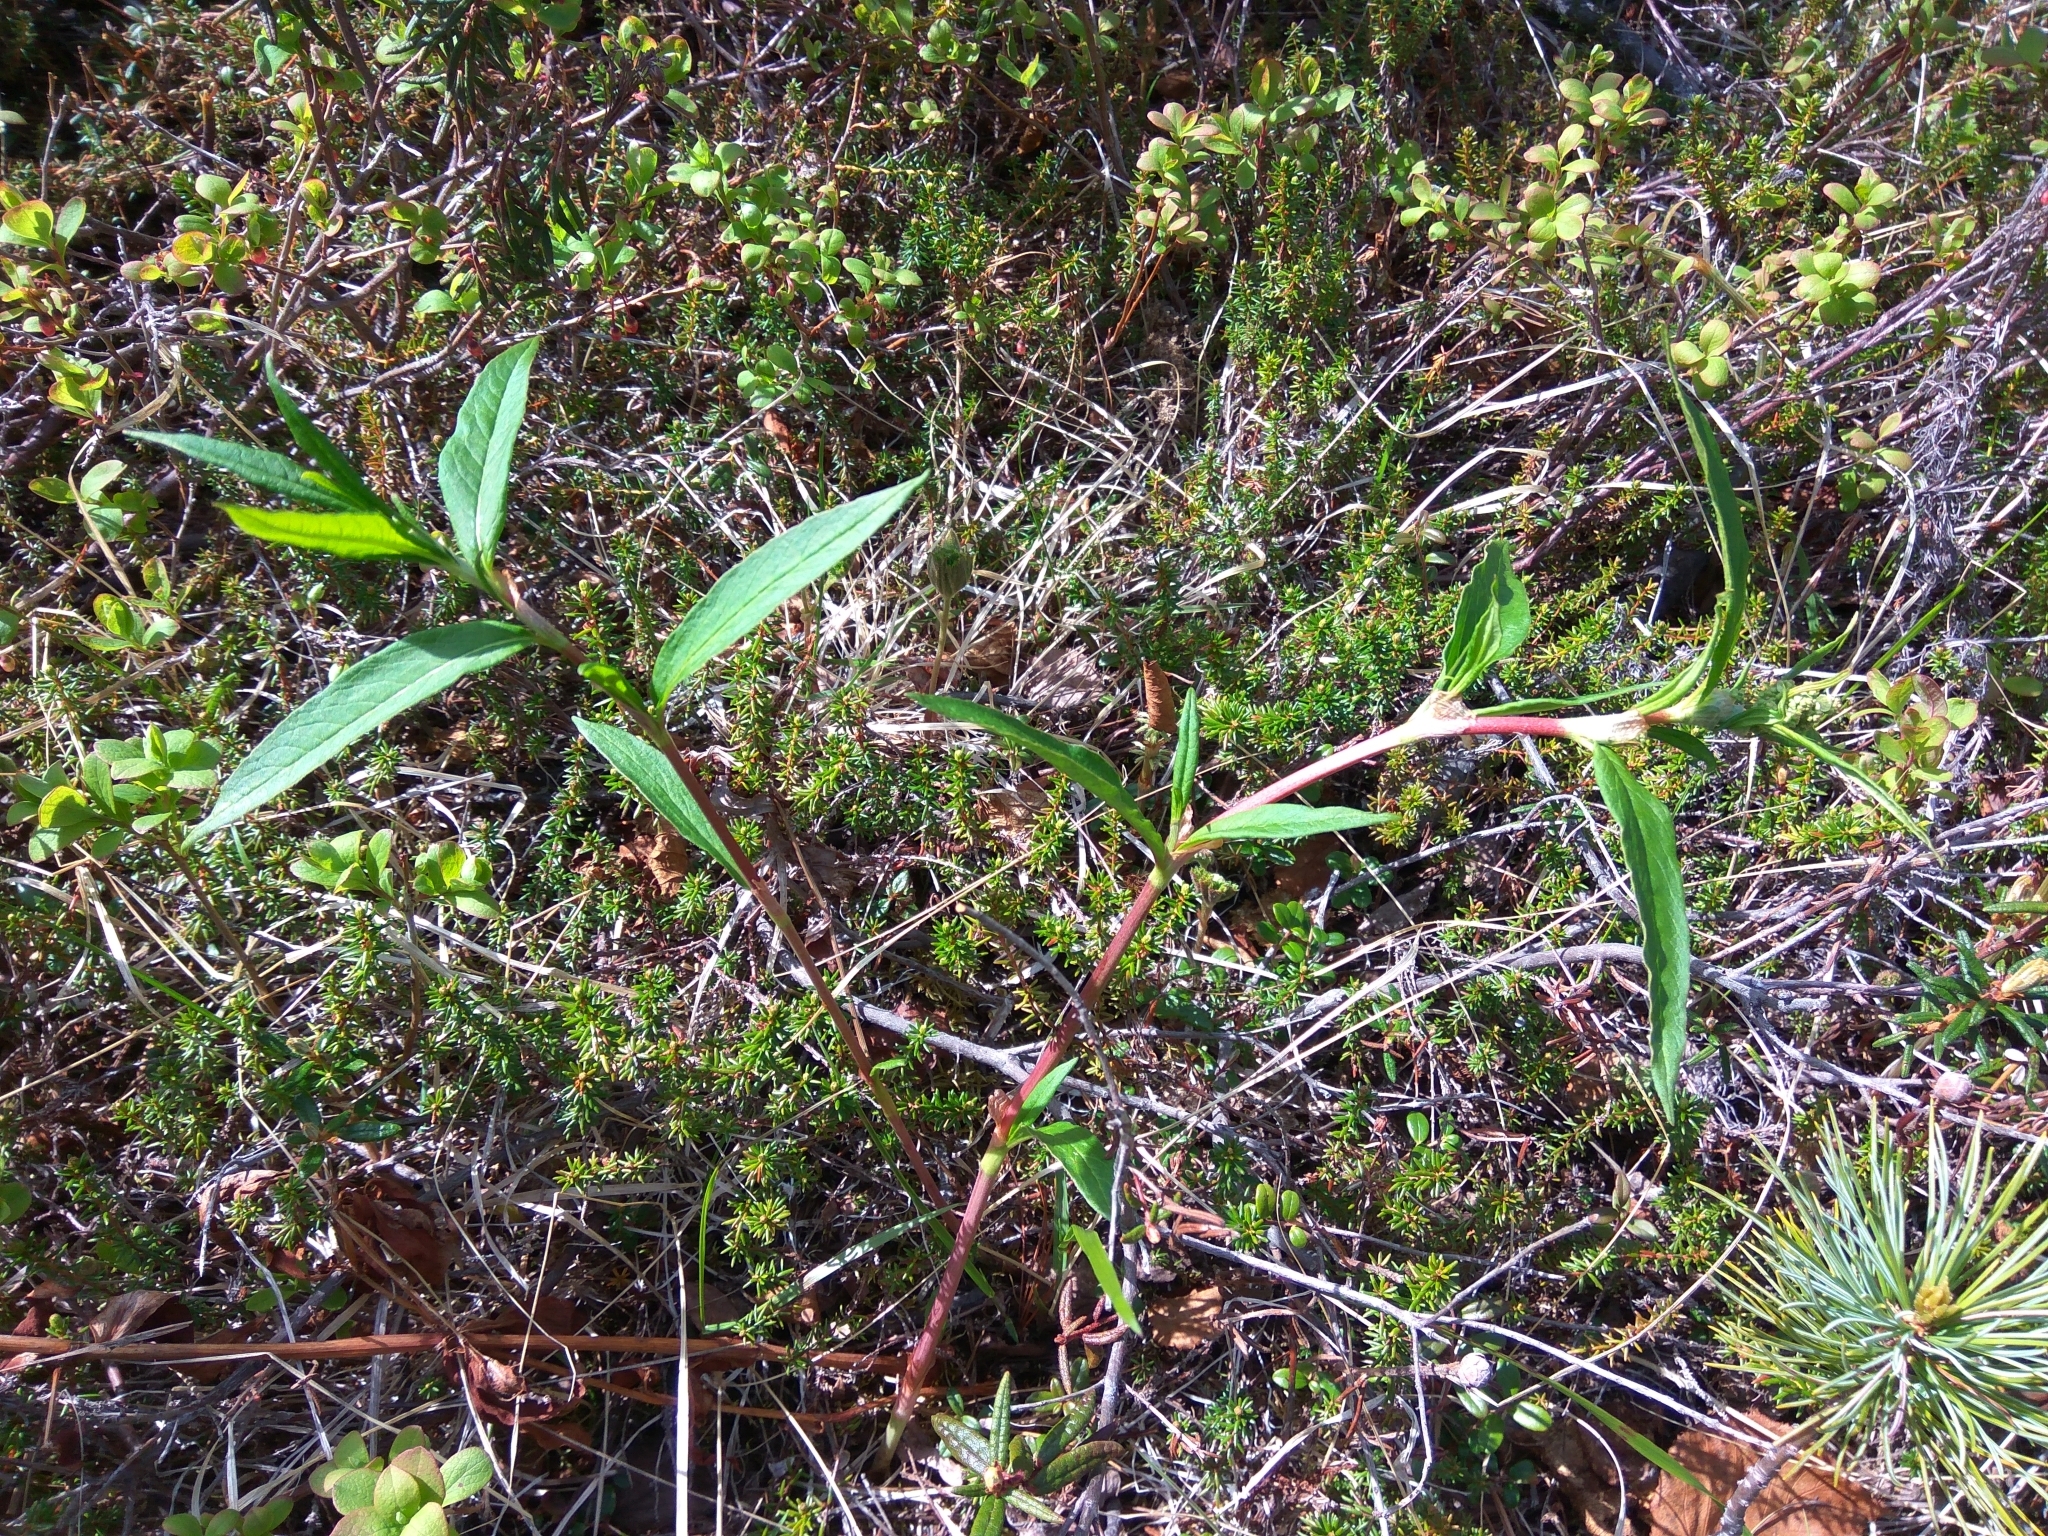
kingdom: Plantae
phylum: Tracheophyta
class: Magnoliopsida
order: Caryophyllales
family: Polygonaceae
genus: Koenigia
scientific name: Koenigia tripterocarpa
